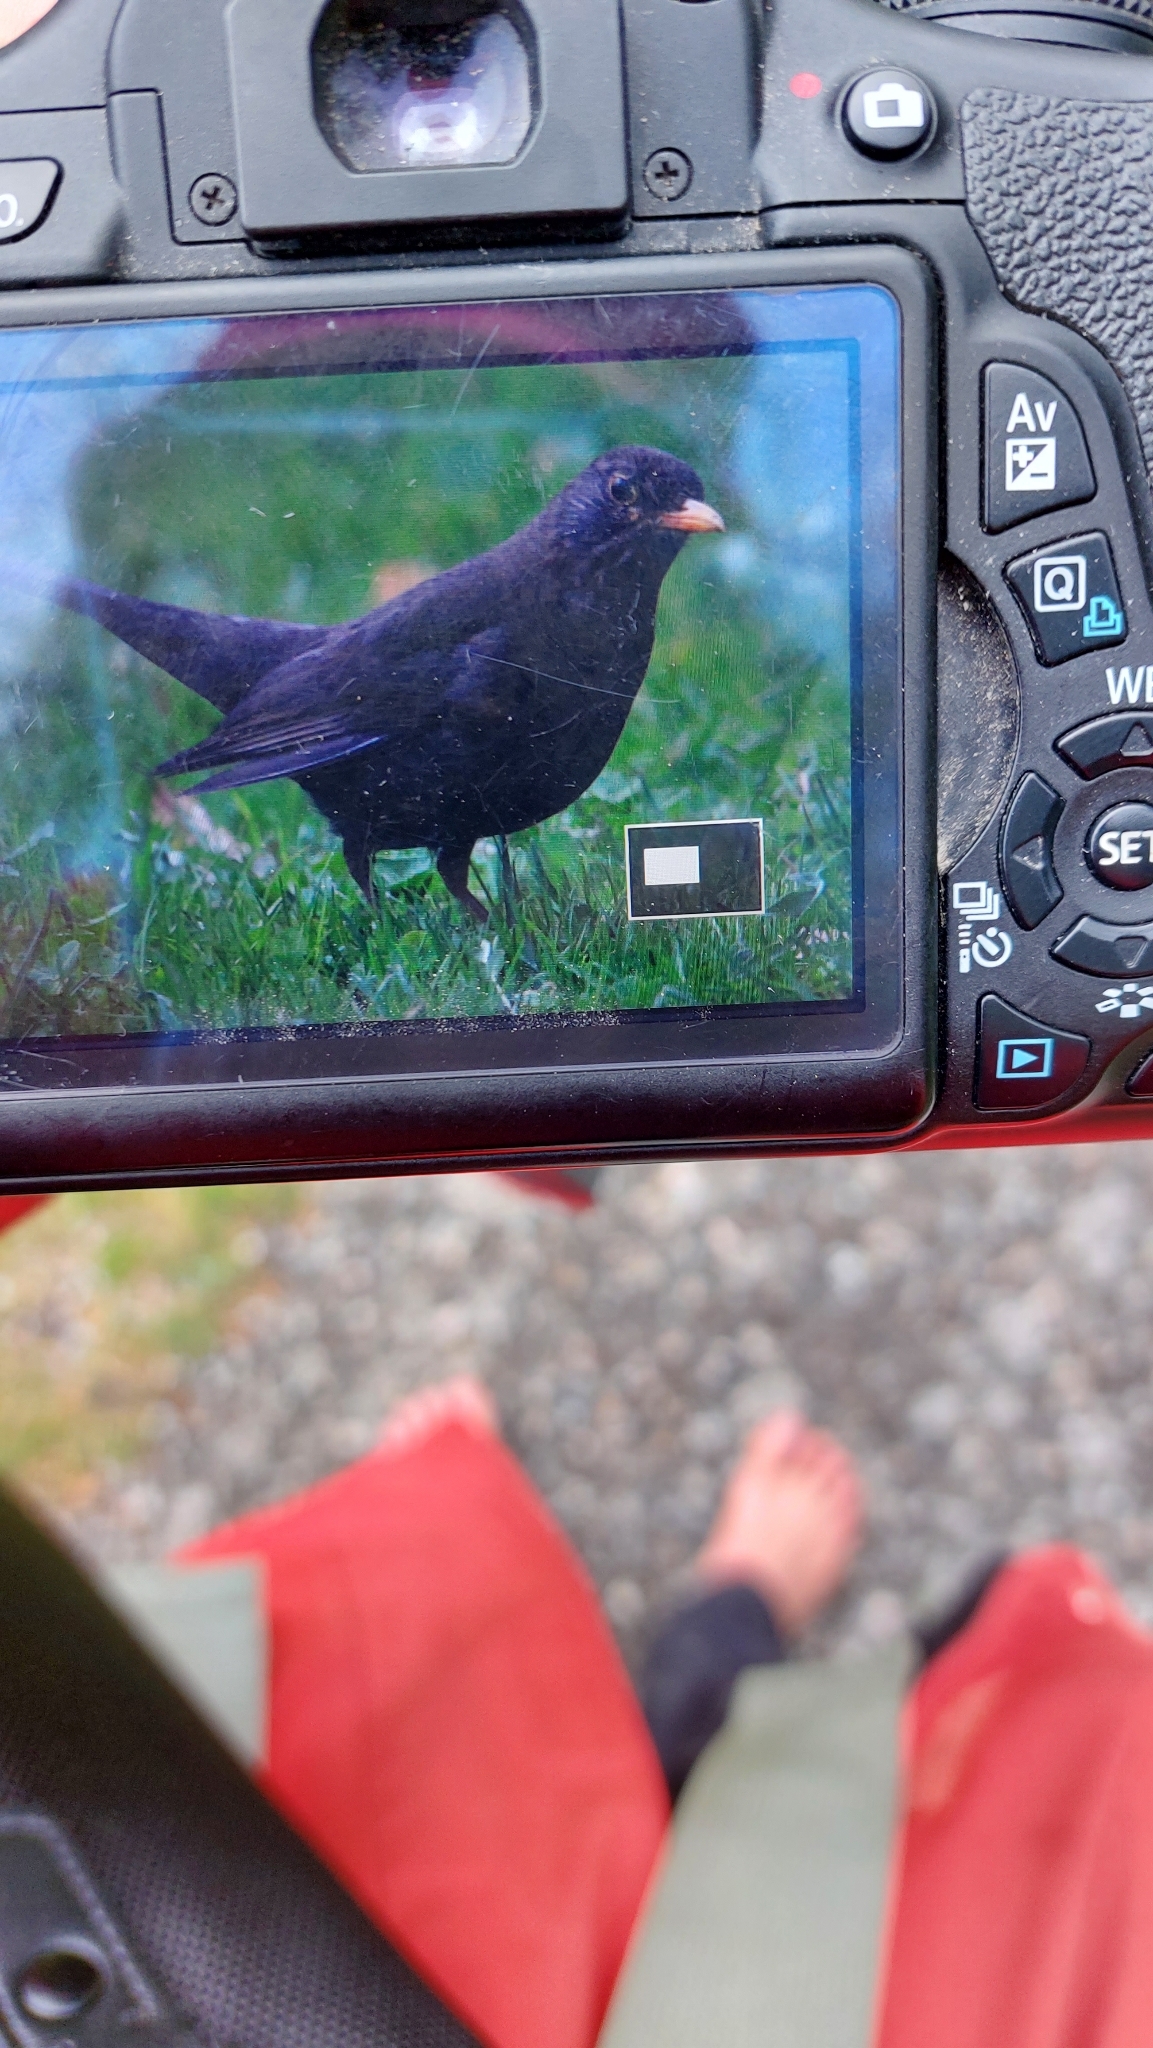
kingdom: Animalia
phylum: Chordata
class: Aves
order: Passeriformes
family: Turdidae
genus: Turdus
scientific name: Turdus merula
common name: Common blackbird
